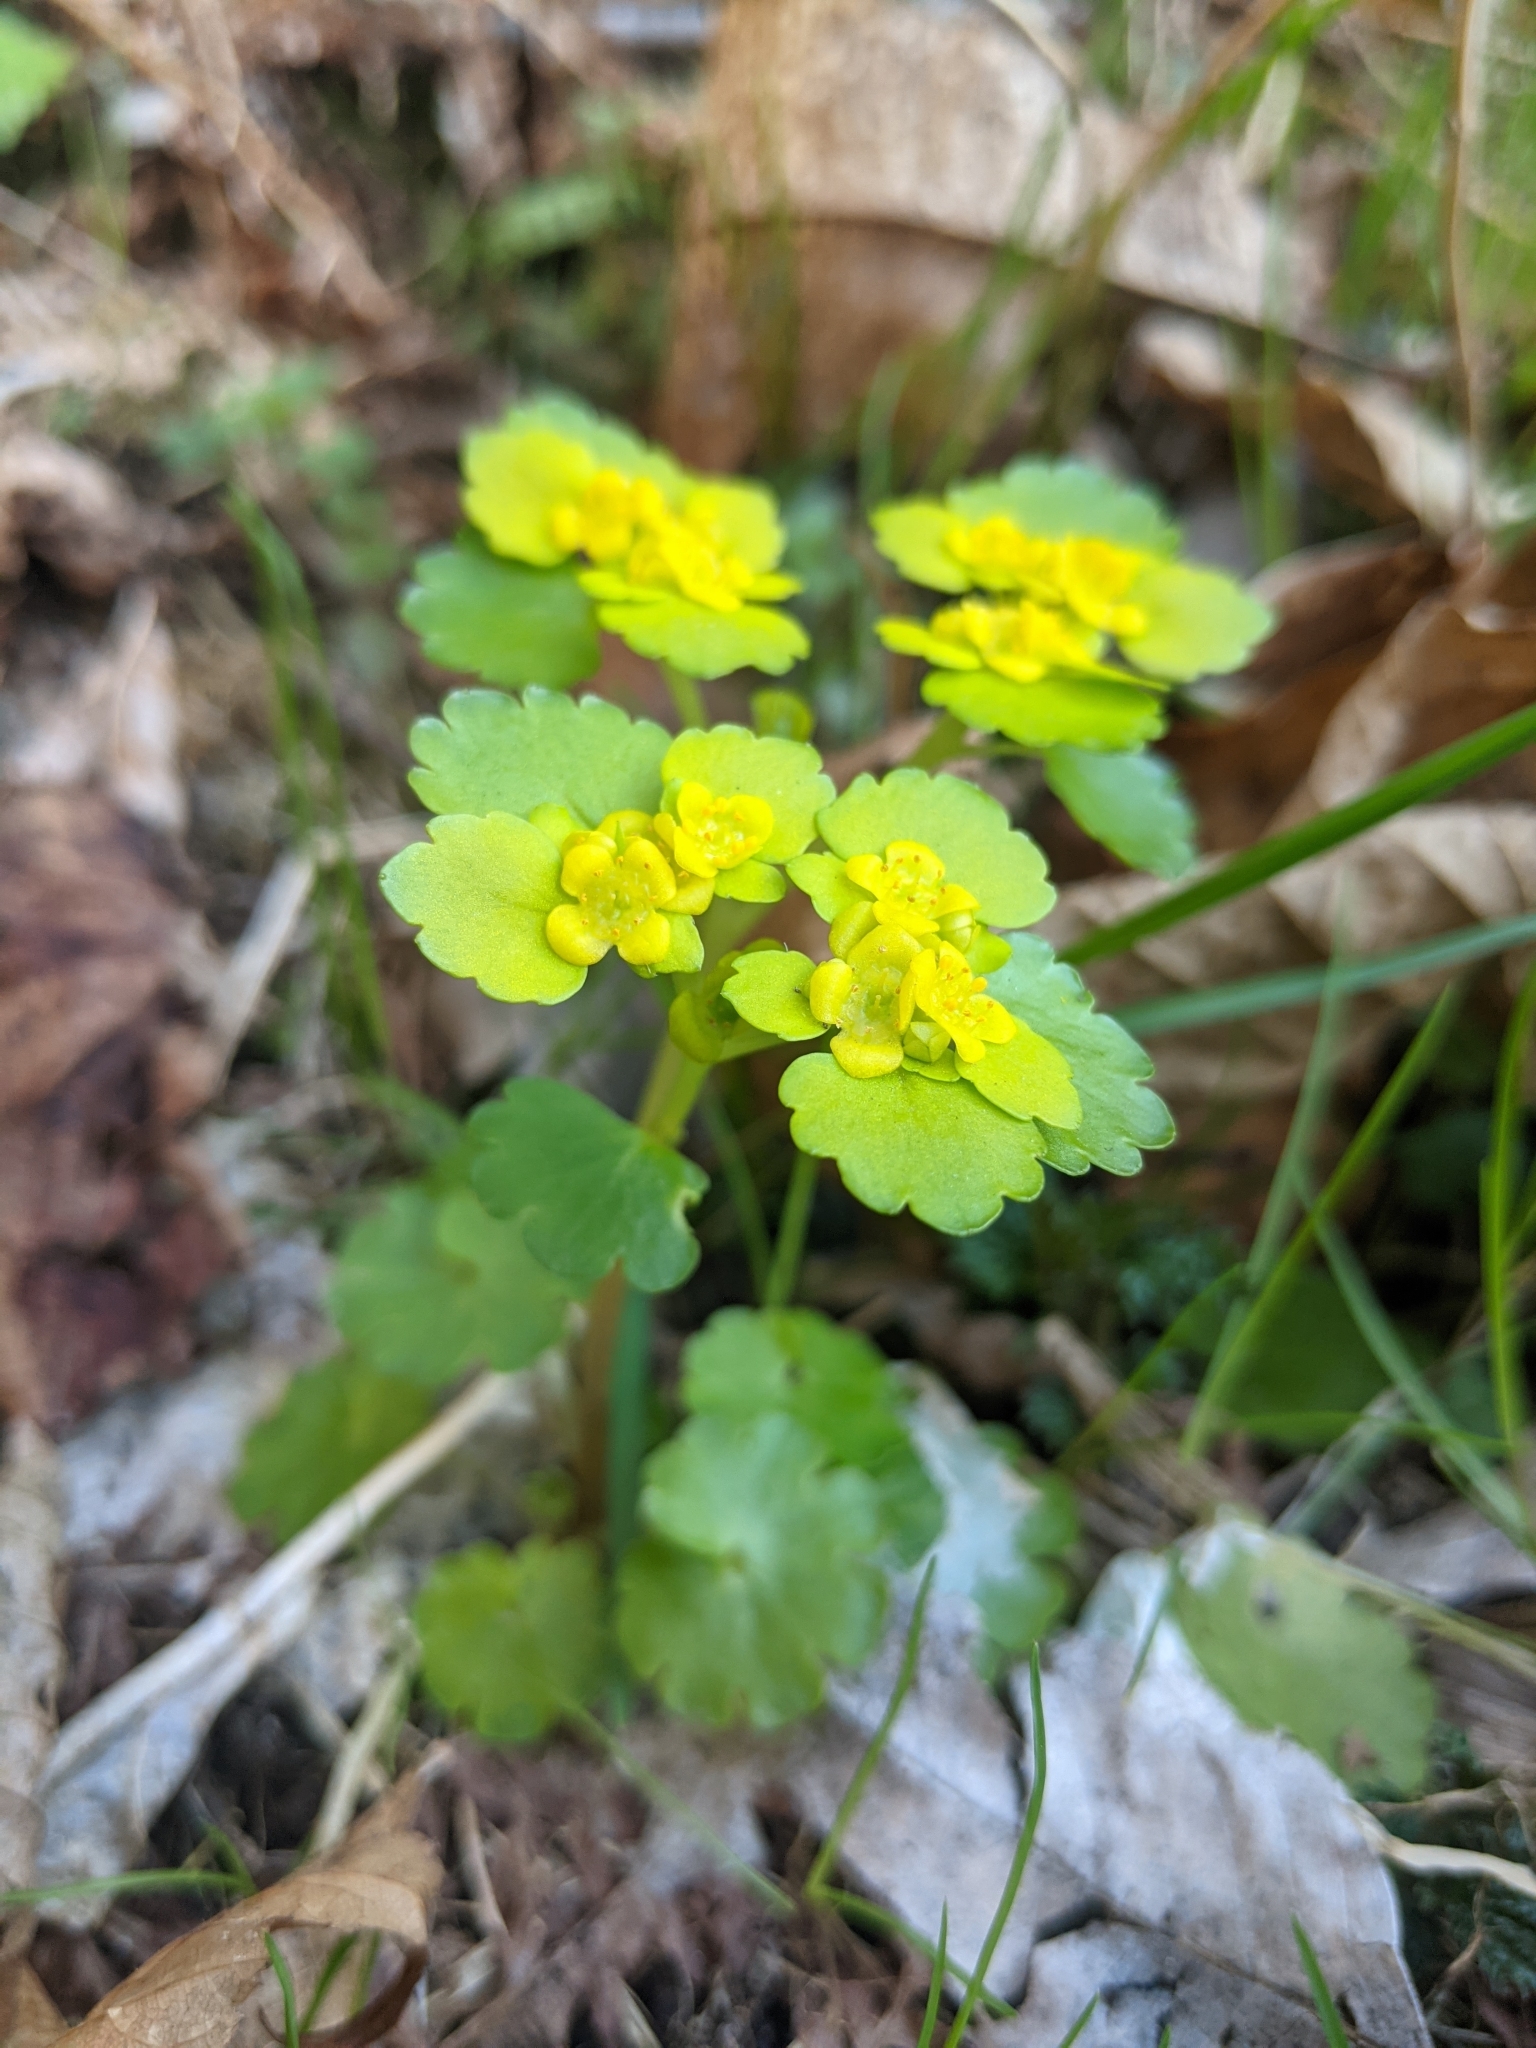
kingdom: Plantae
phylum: Tracheophyta
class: Magnoliopsida
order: Saxifragales
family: Saxifragaceae
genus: Chrysosplenium
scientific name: Chrysosplenium alternifolium
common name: Alternate-leaved golden-saxifrage
